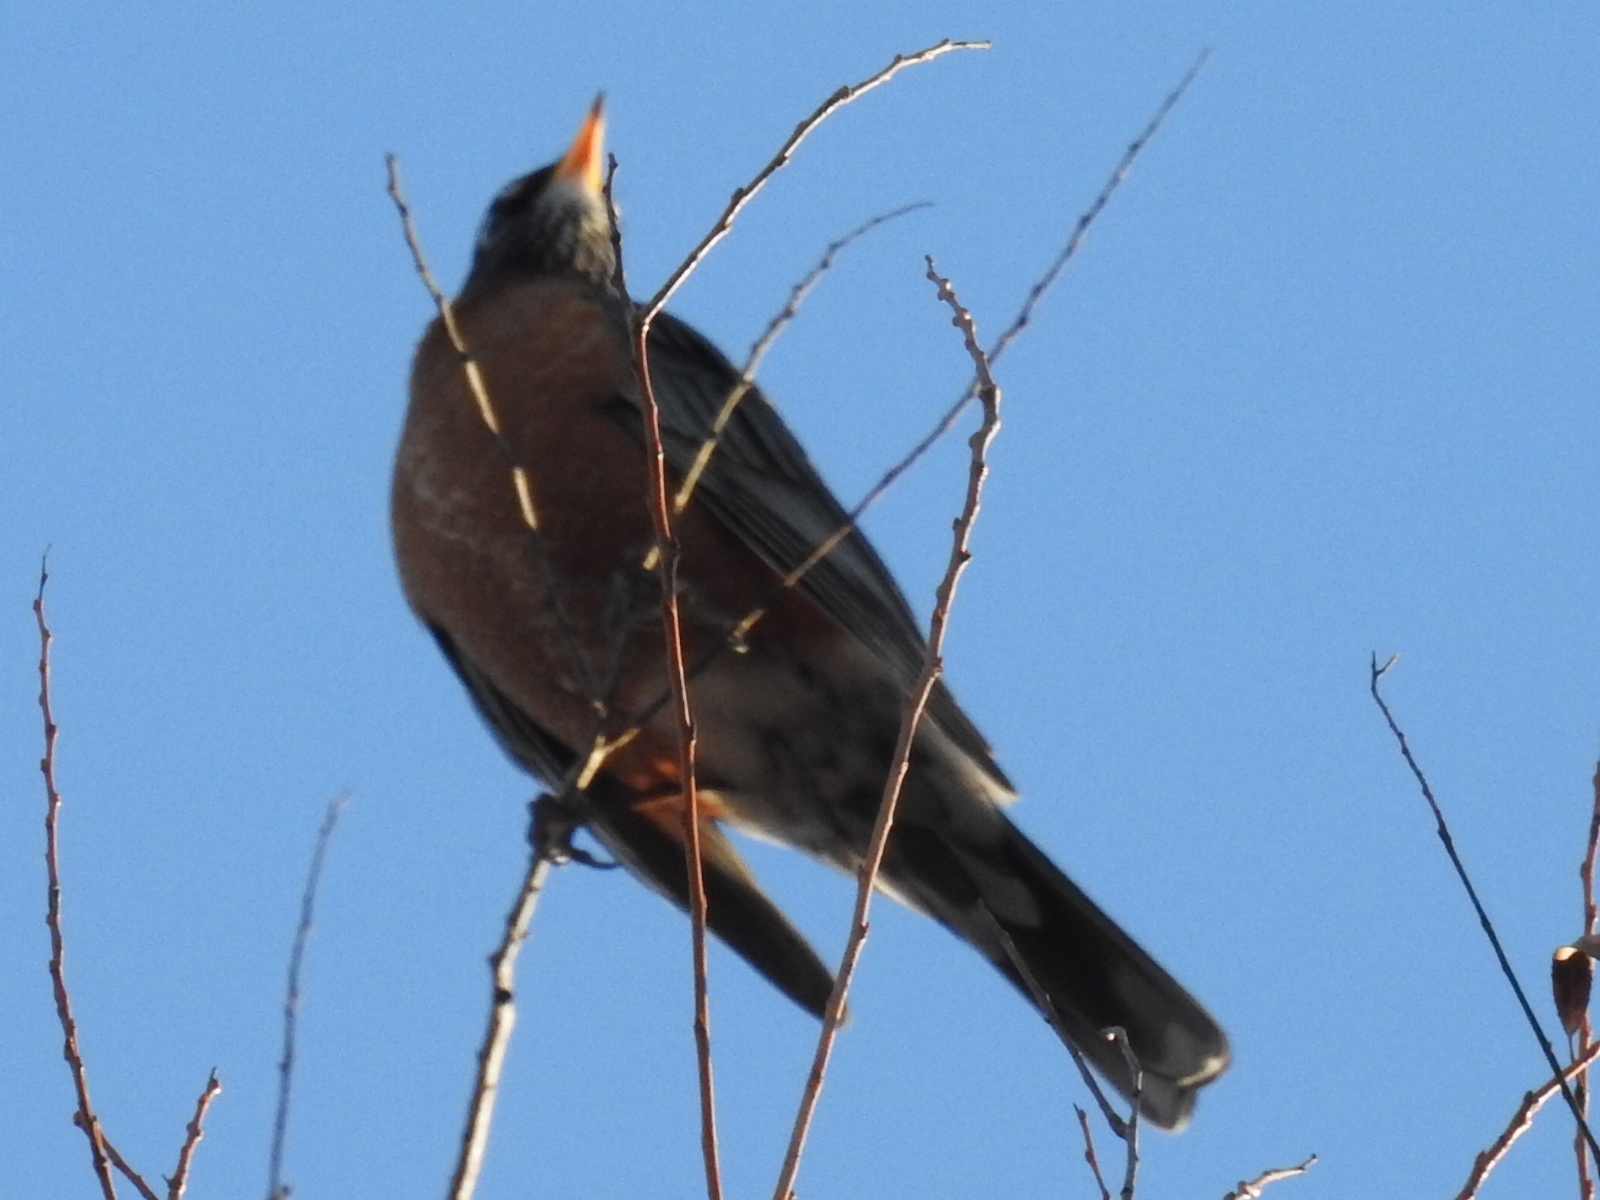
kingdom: Animalia
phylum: Chordata
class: Aves
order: Passeriformes
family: Turdidae
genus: Turdus
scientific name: Turdus migratorius
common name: American robin
